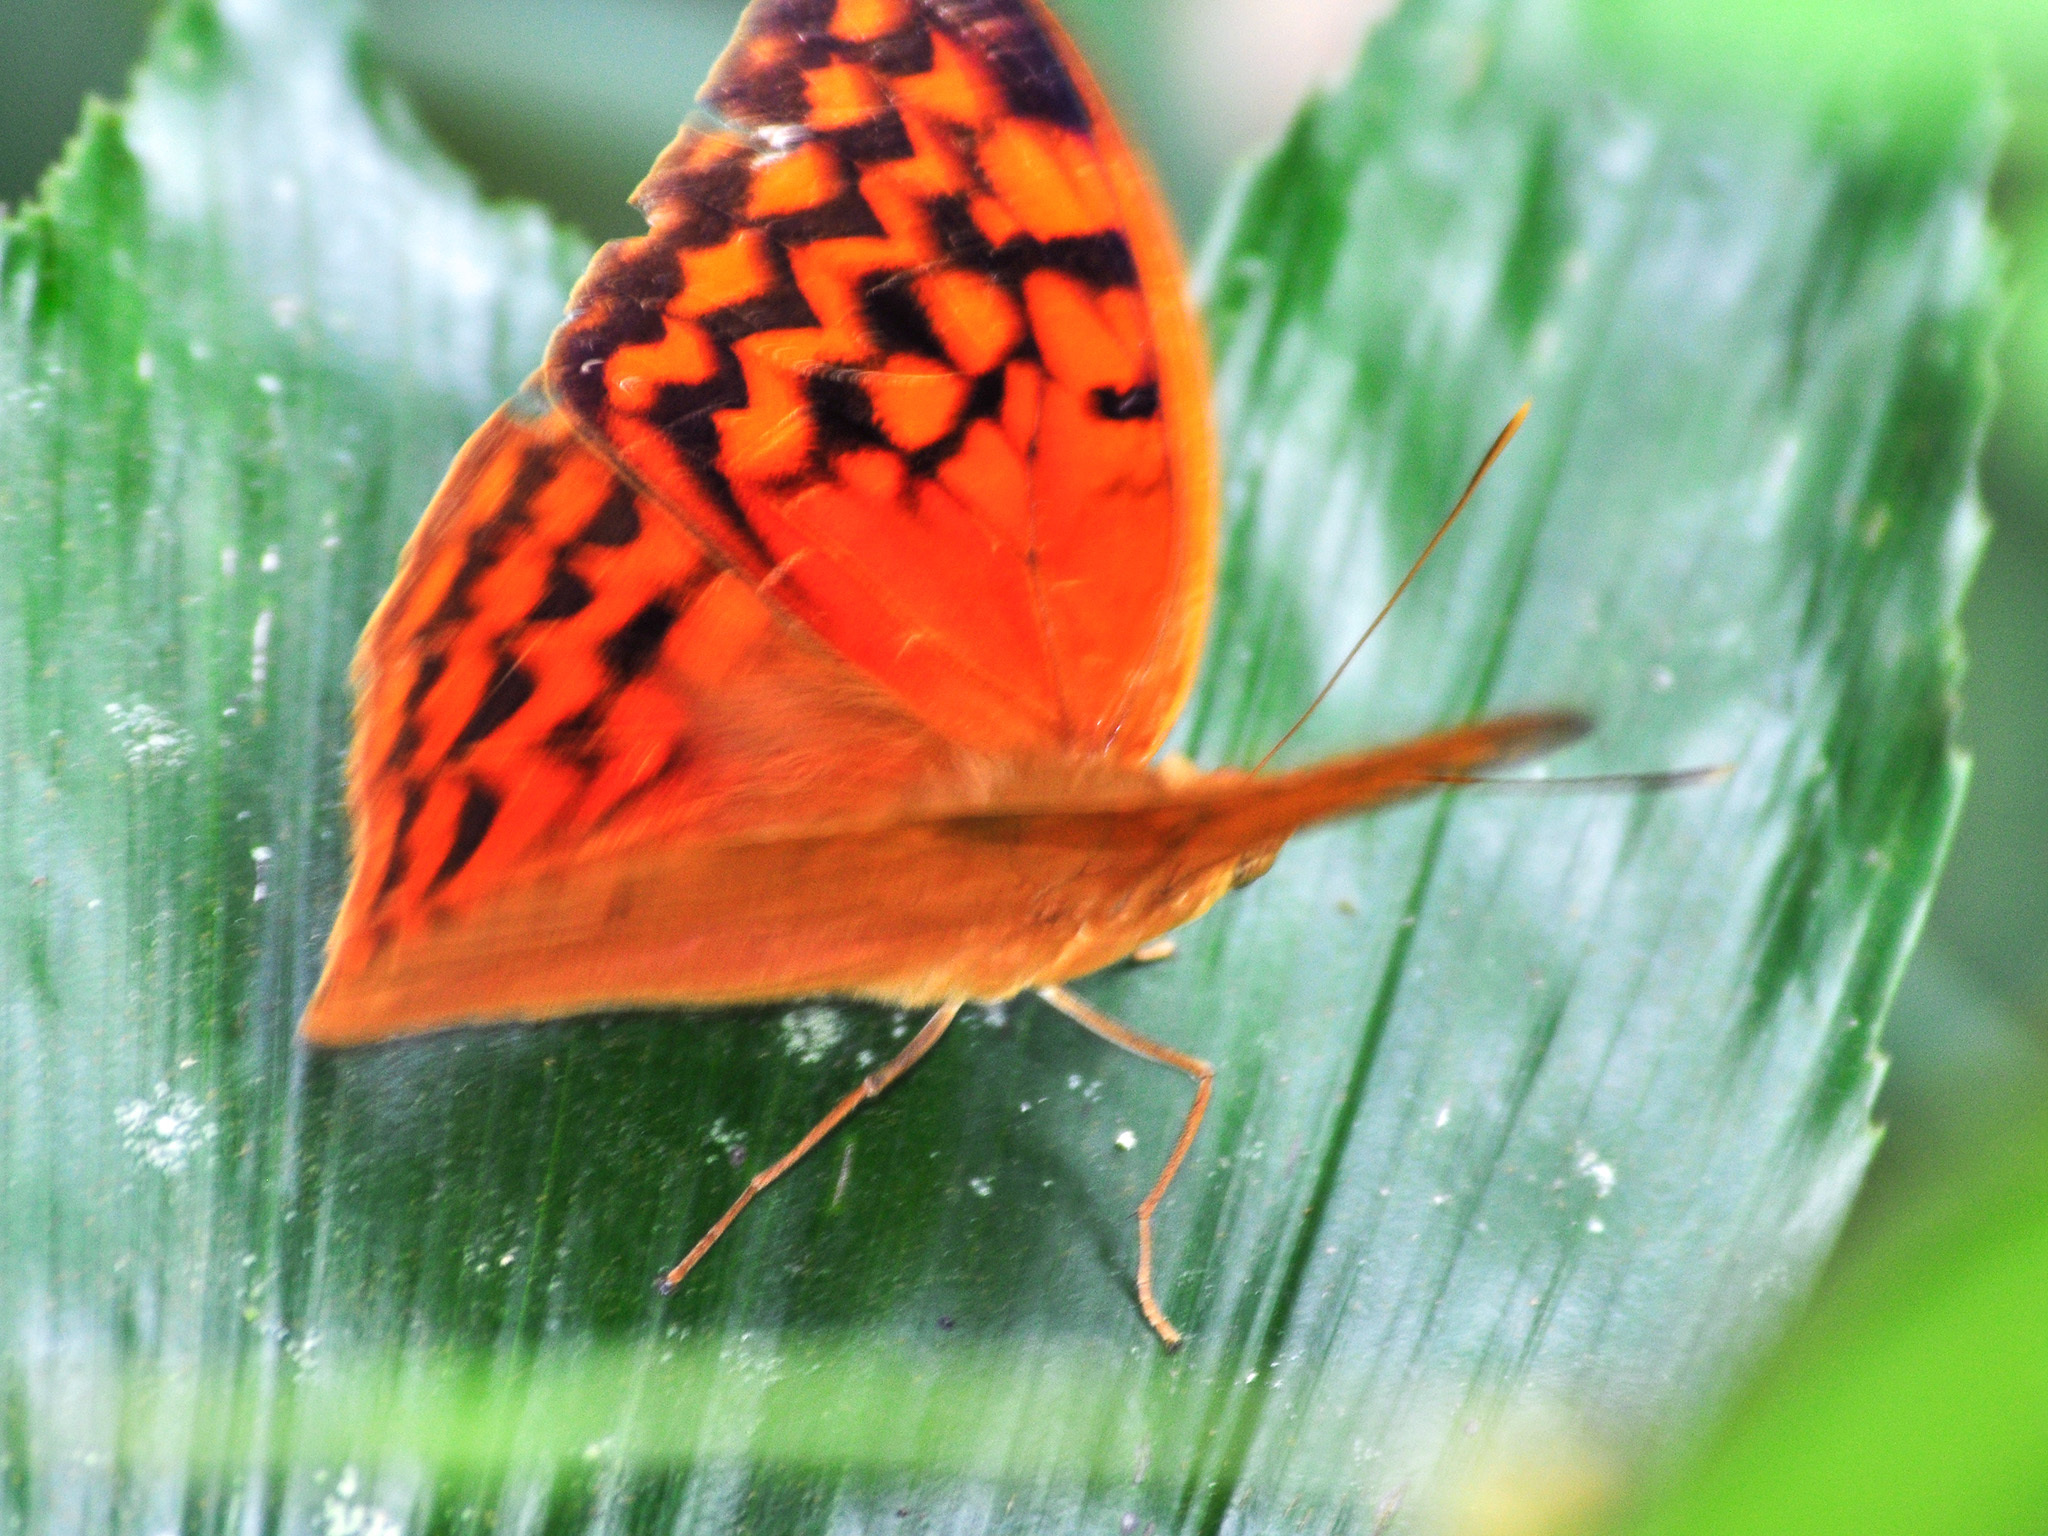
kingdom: Animalia
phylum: Arthropoda
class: Insecta
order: Lepidoptera
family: Nymphalidae
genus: Enispe
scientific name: Enispe
